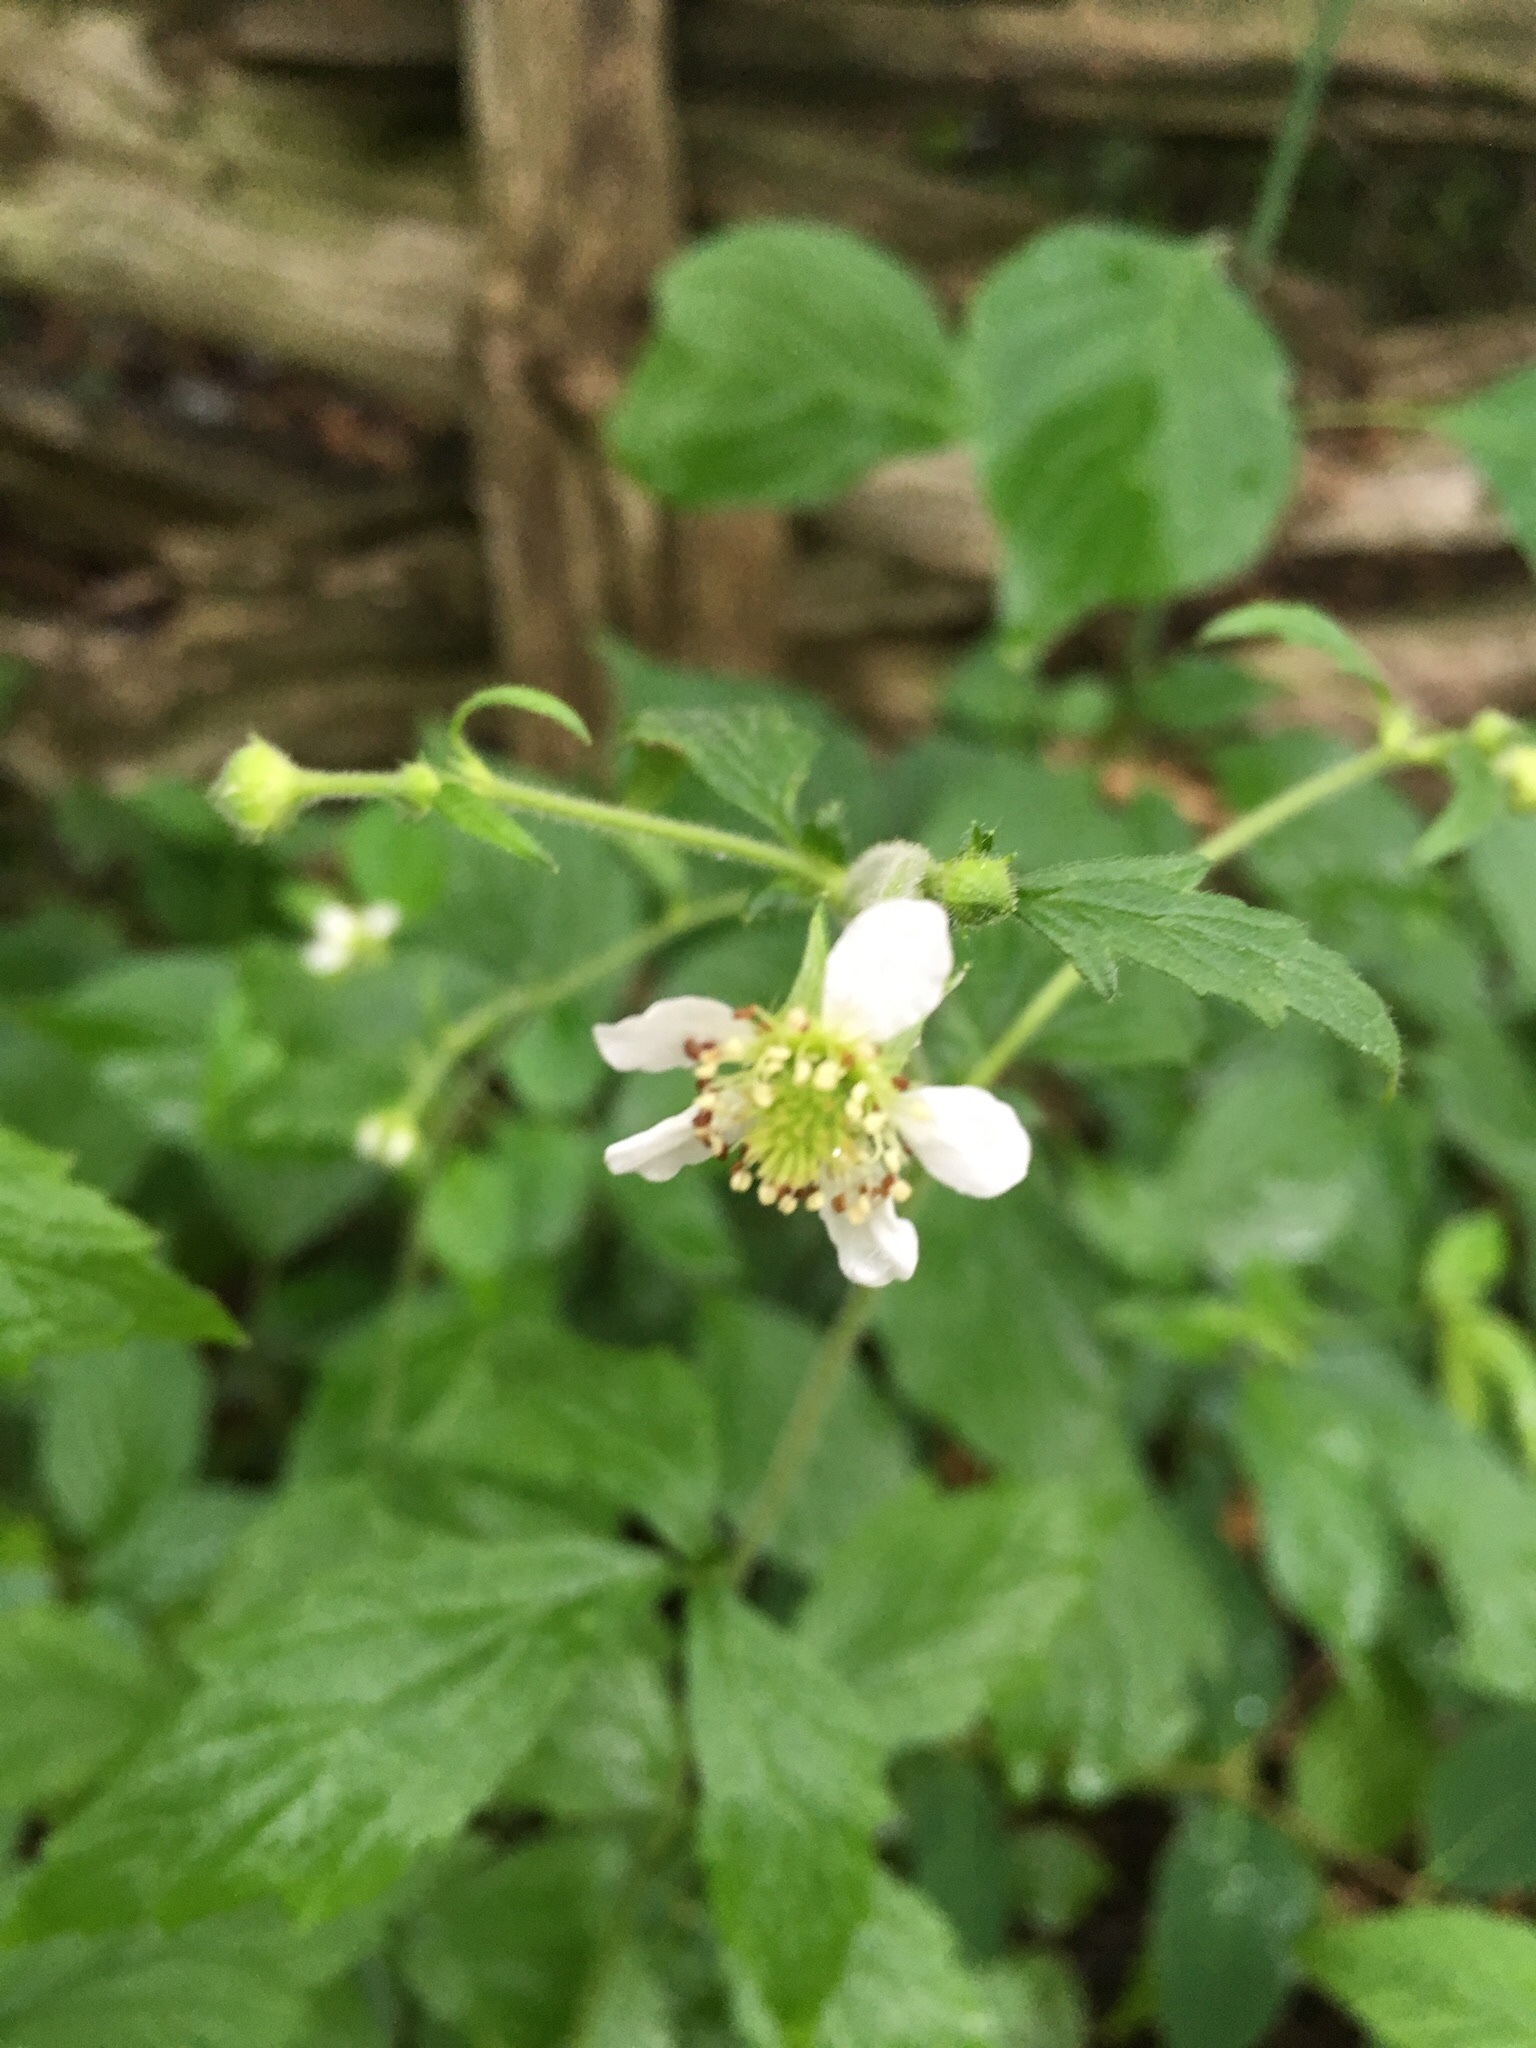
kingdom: Plantae
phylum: Tracheophyta
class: Magnoliopsida
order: Rosales
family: Rosaceae
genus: Geum
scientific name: Geum canadense
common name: White avens
